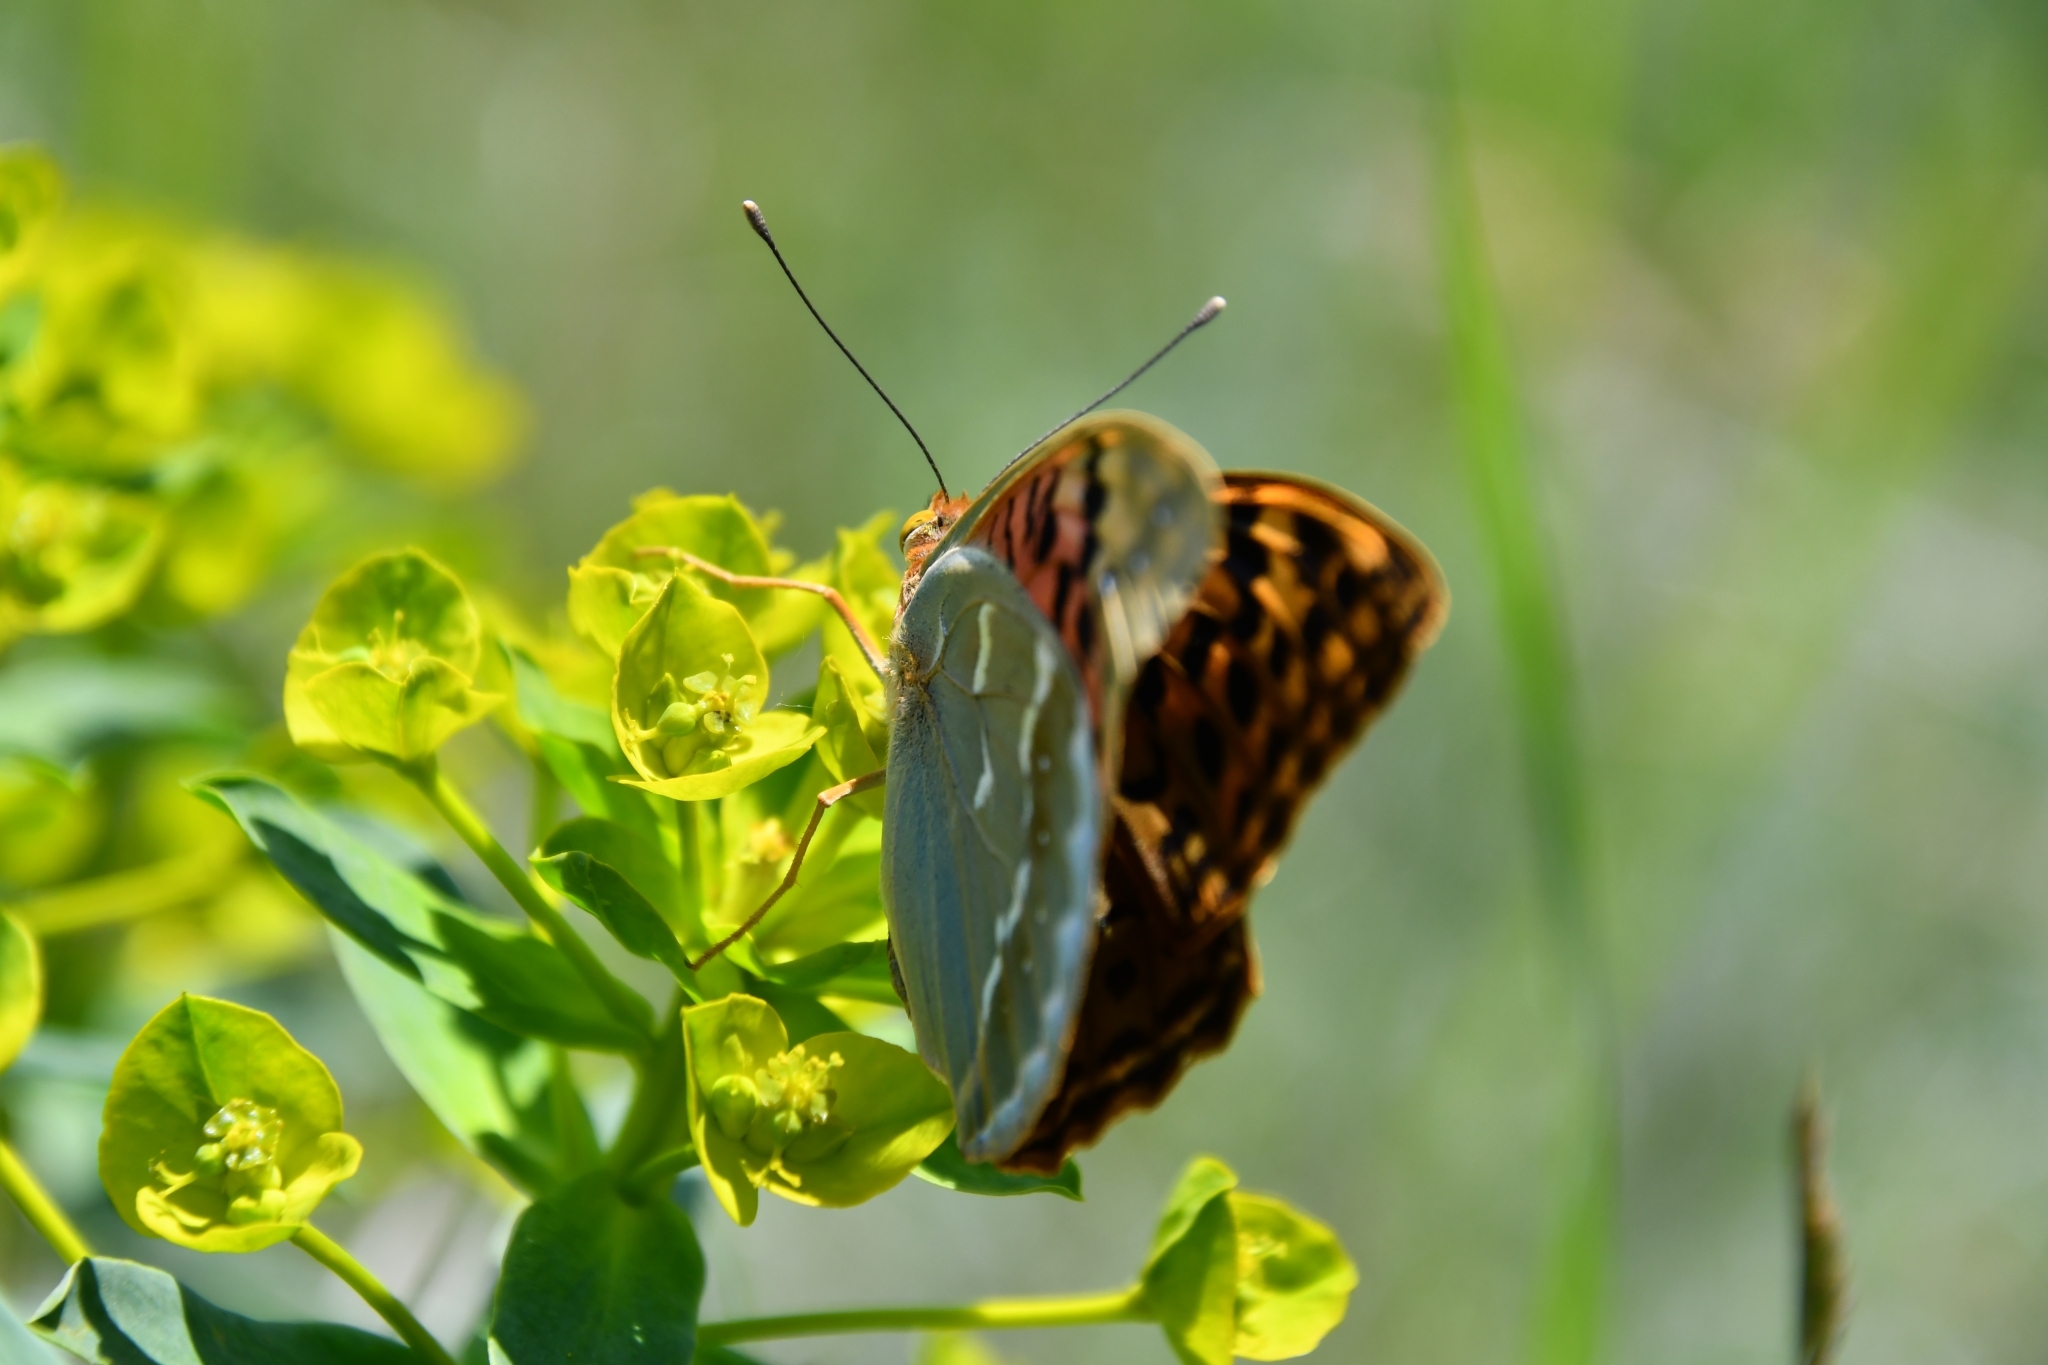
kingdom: Animalia
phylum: Arthropoda
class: Insecta
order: Lepidoptera
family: Nymphalidae
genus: Damora
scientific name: Damora pandora
